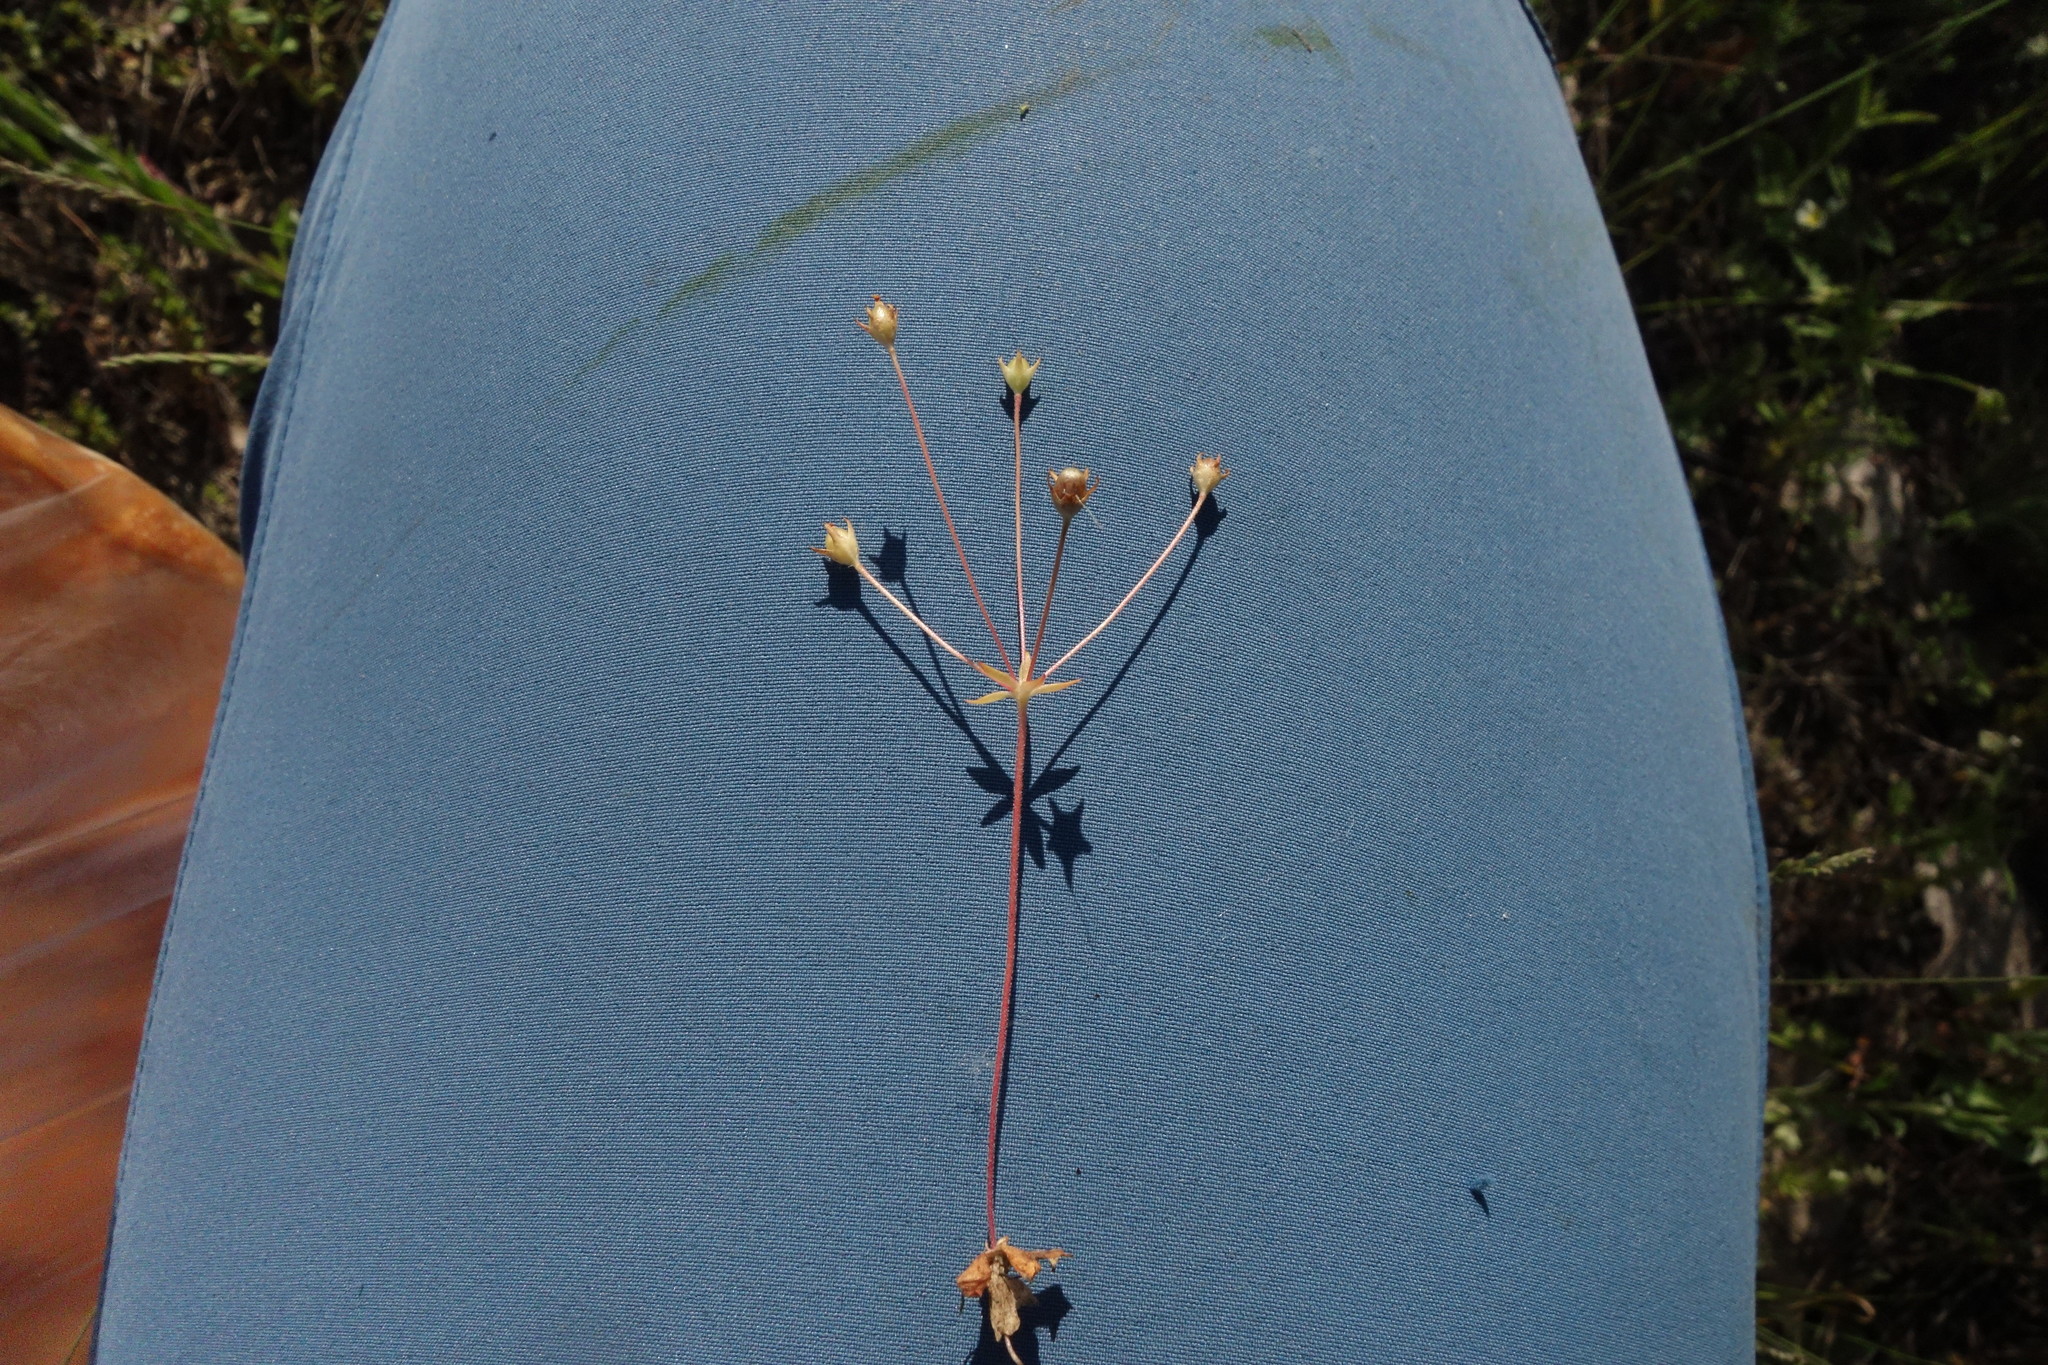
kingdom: Plantae
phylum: Tracheophyta
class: Magnoliopsida
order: Ericales
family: Primulaceae
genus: Androsace
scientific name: Androsace elongata
